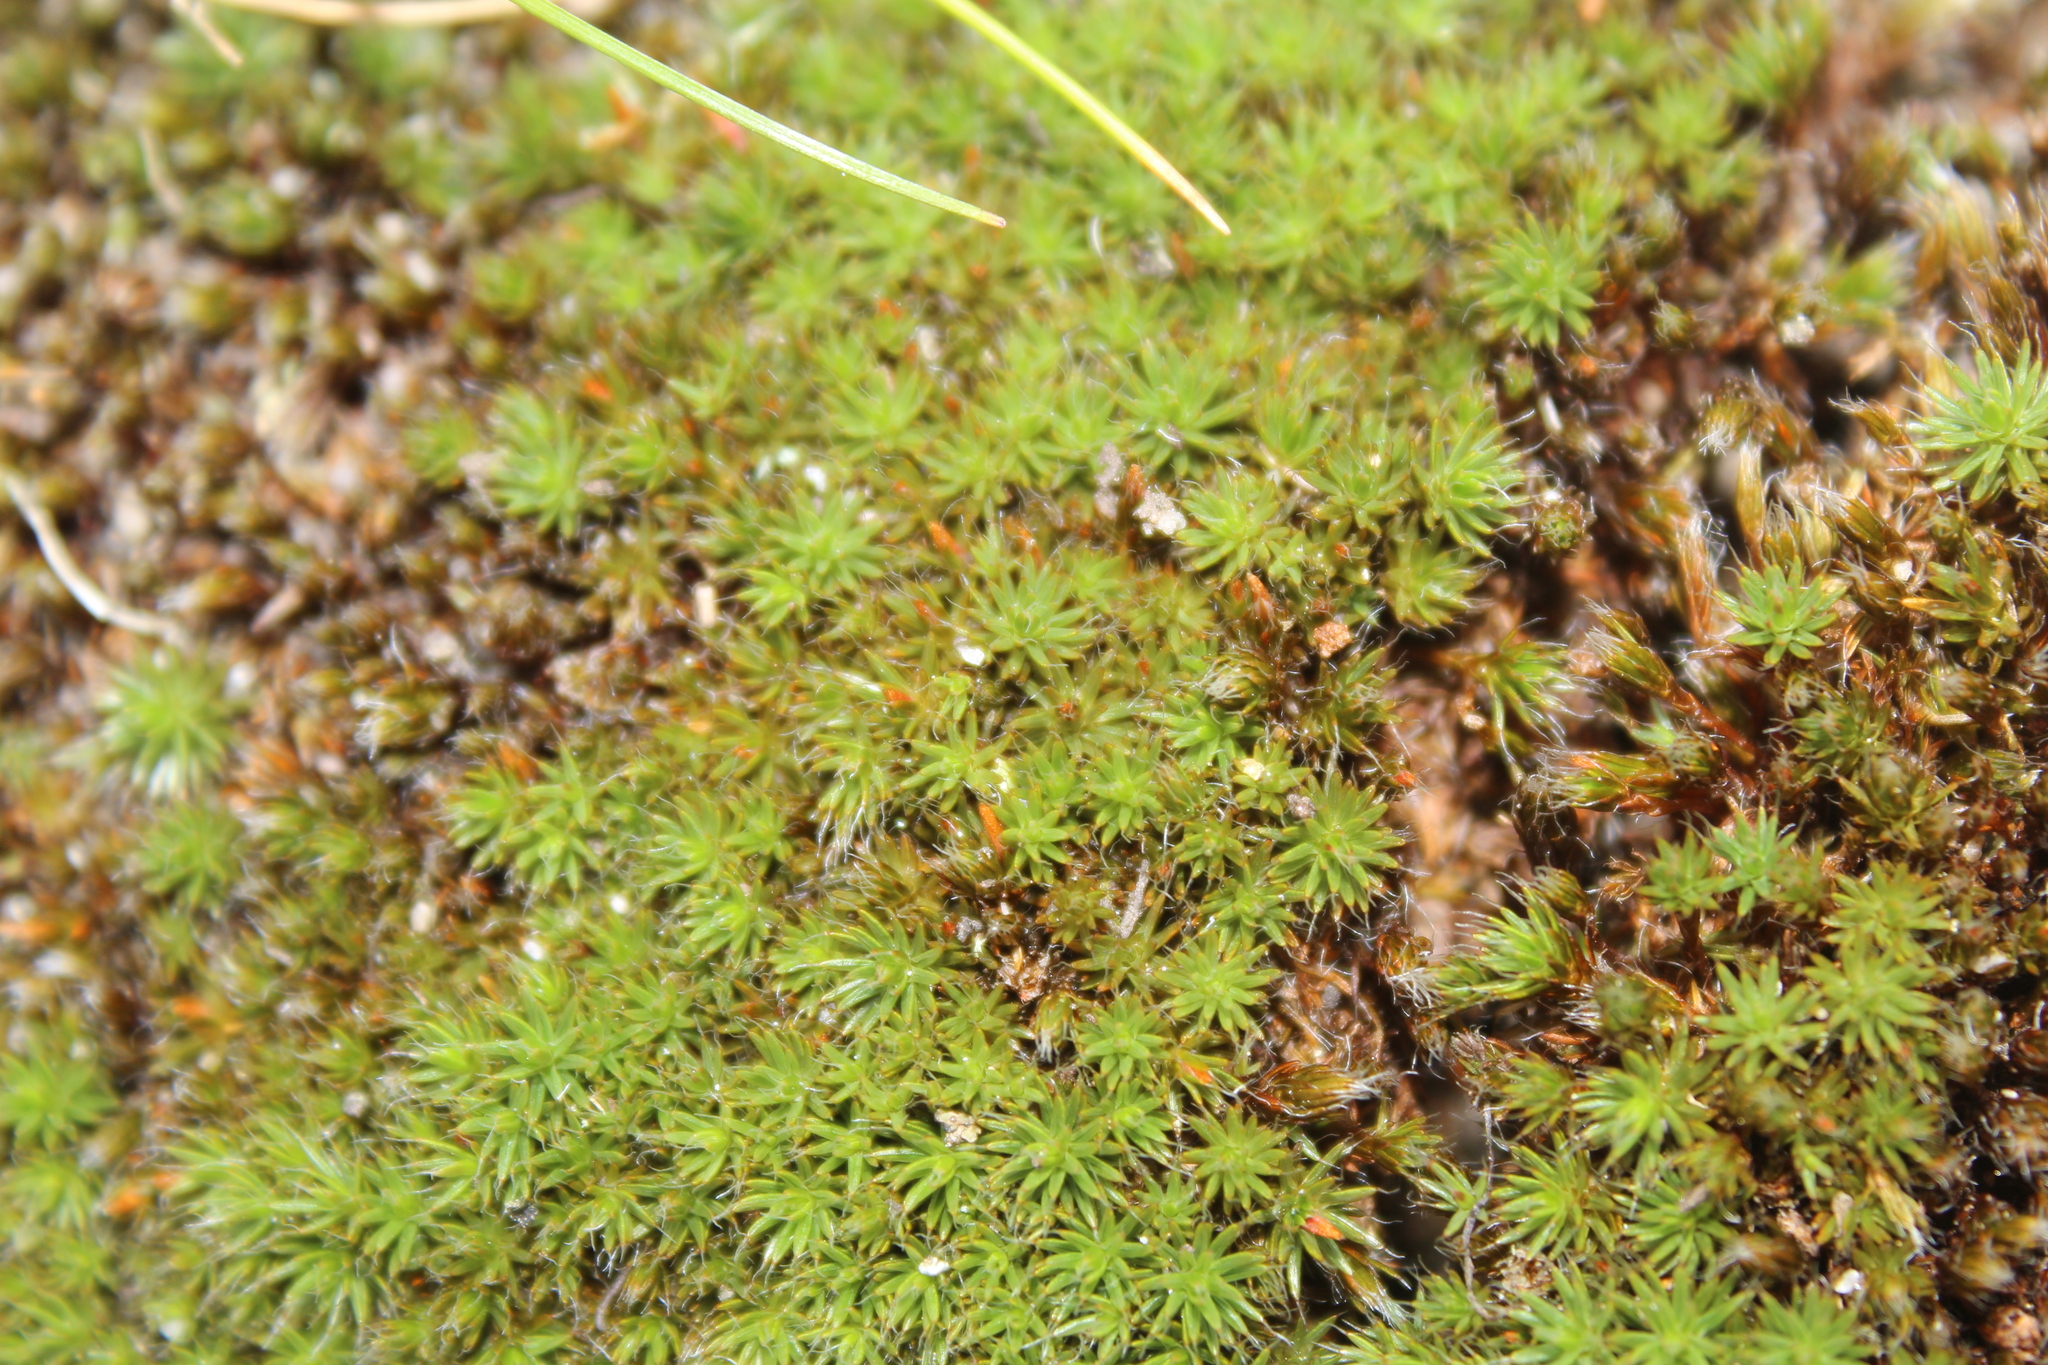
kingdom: Plantae
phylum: Bryophyta
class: Polytrichopsida
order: Polytrichales
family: Polytrichaceae
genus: Polytrichum
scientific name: Polytrichum piliferum
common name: Bristly haircap
